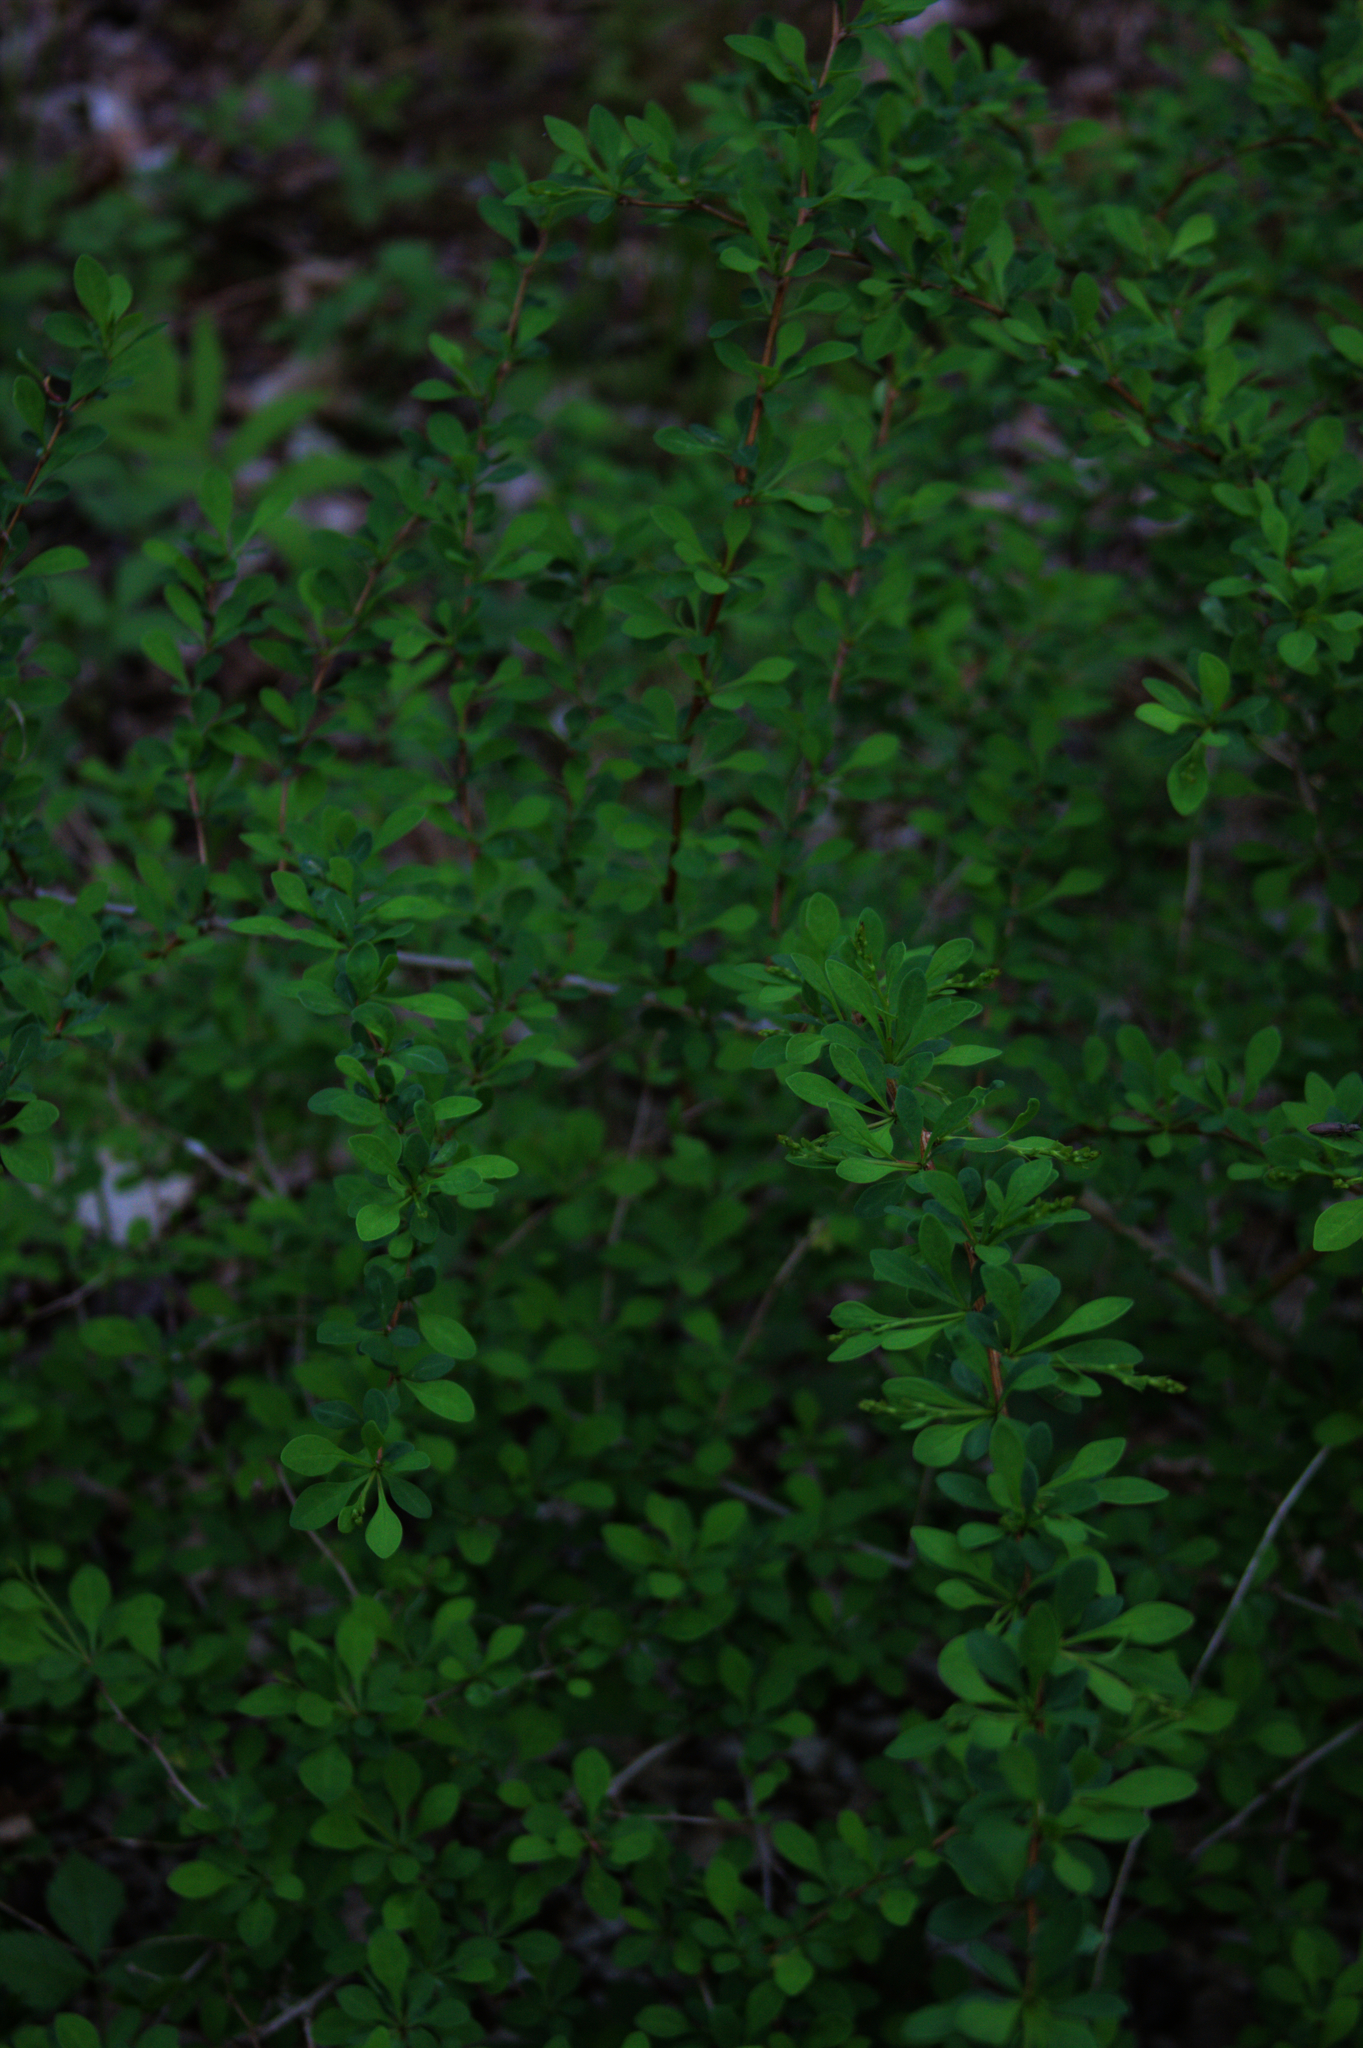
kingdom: Plantae
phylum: Tracheophyta
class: Magnoliopsida
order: Ranunculales
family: Berberidaceae
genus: Berberis
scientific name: Berberis thunbergii
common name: Japanese barberry
